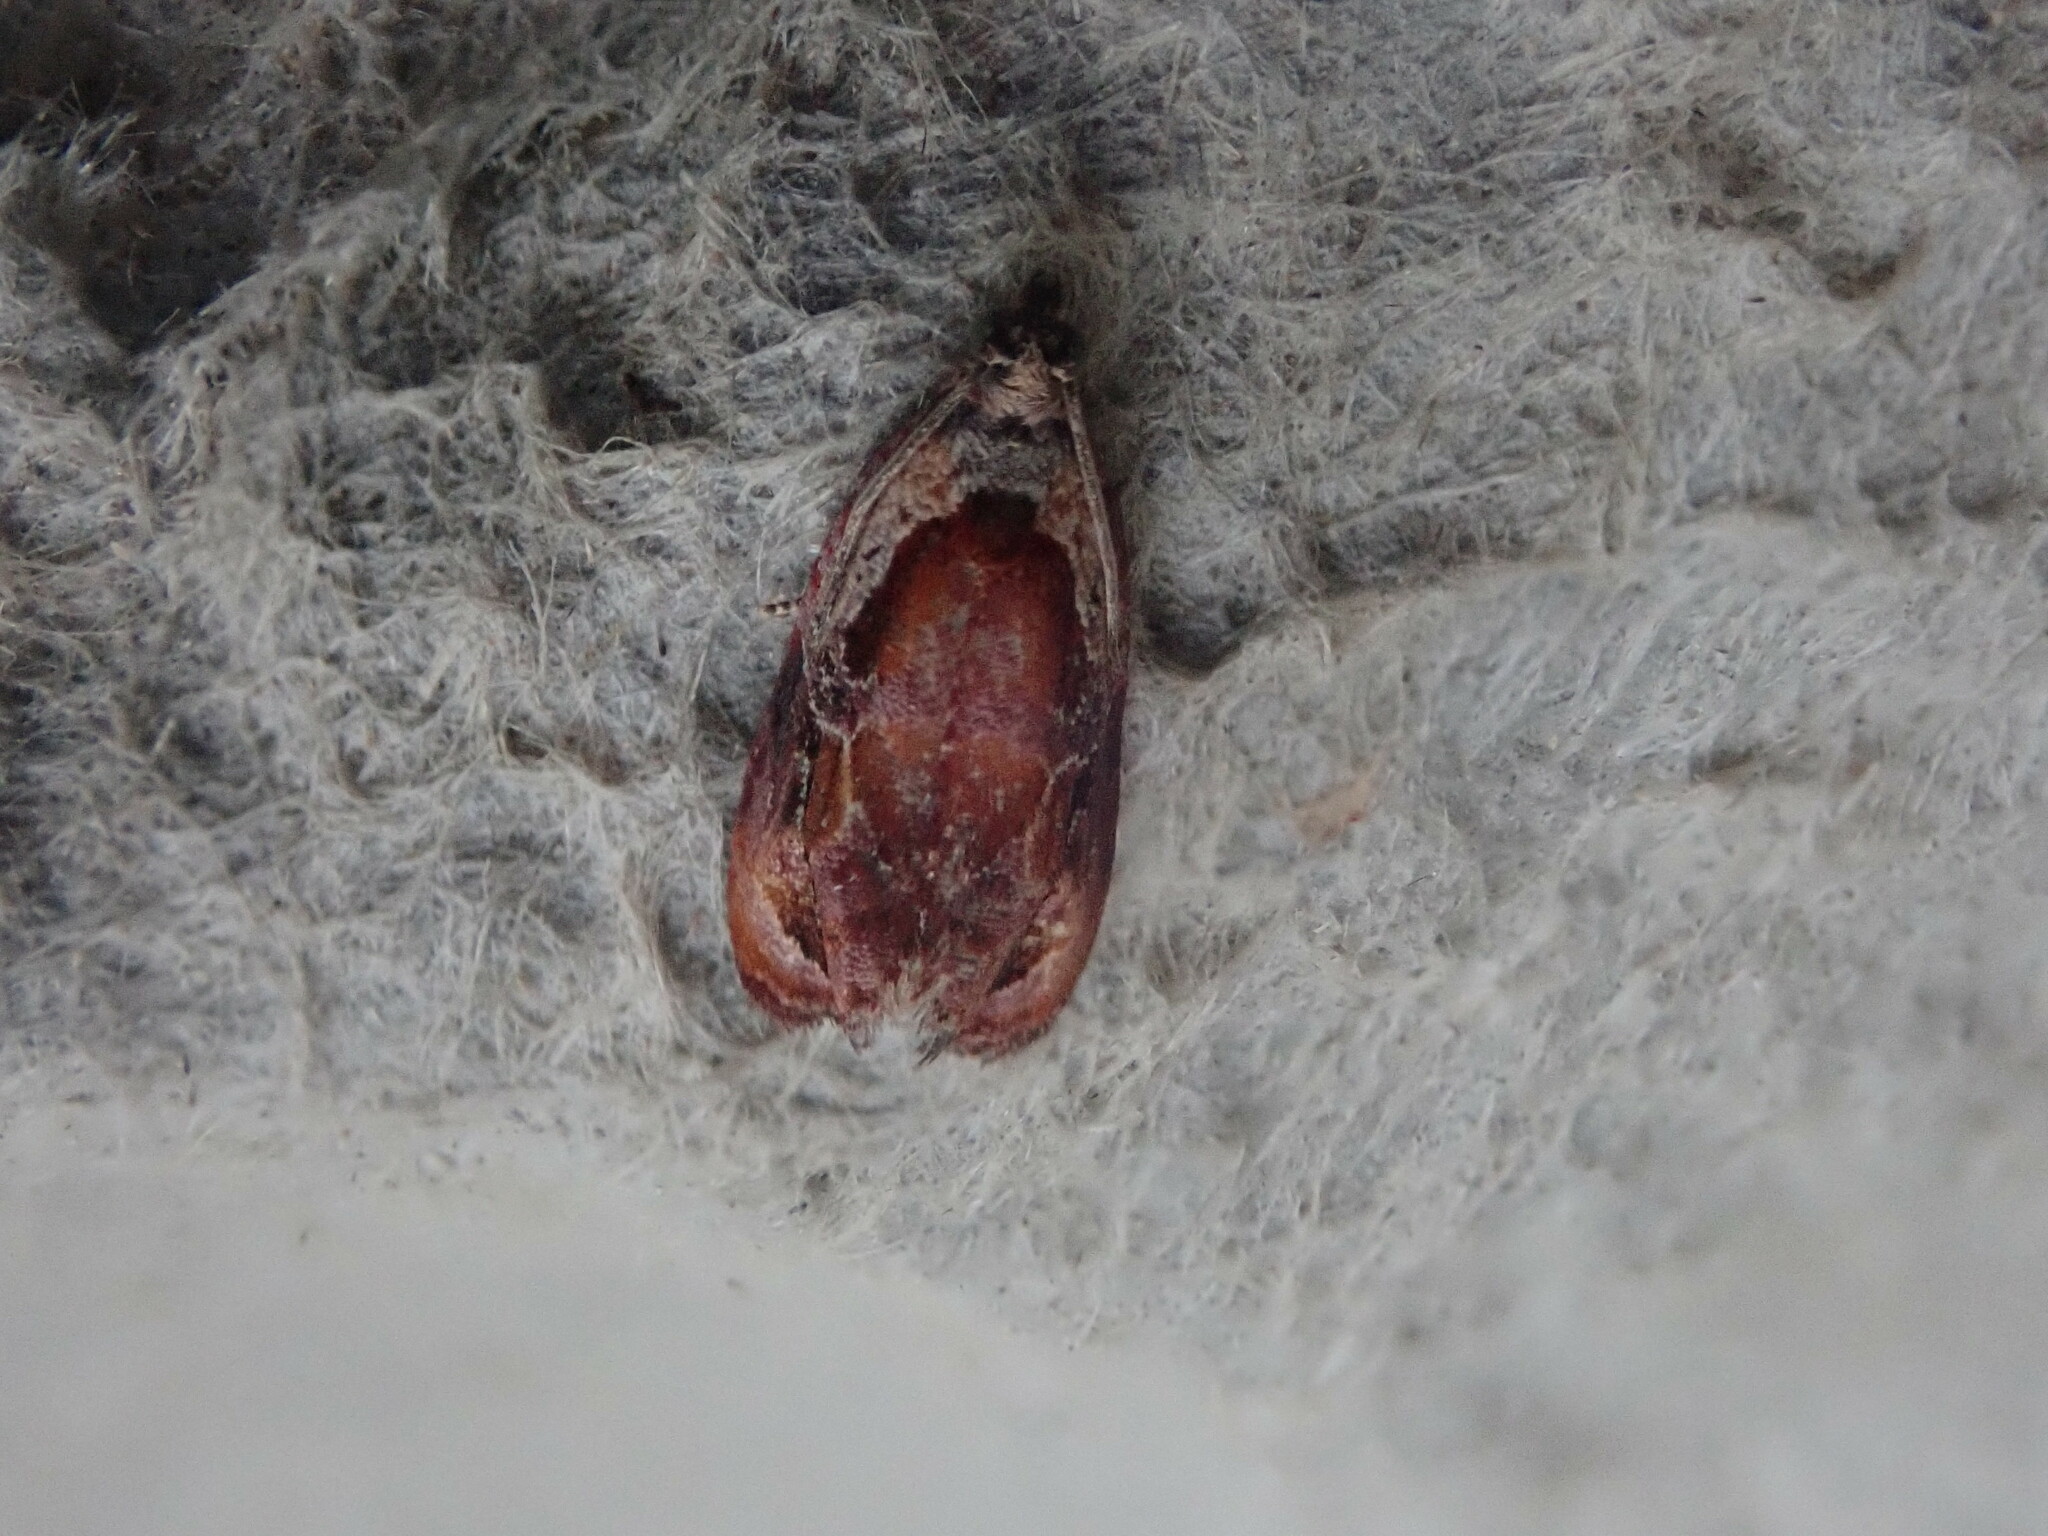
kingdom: Animalia
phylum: Arthropoda
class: Insecta
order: Lepidoptera
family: Tortricidae
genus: Zomaria
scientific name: Zomaria interruptolineana
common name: Broken-lined zomaria moth
